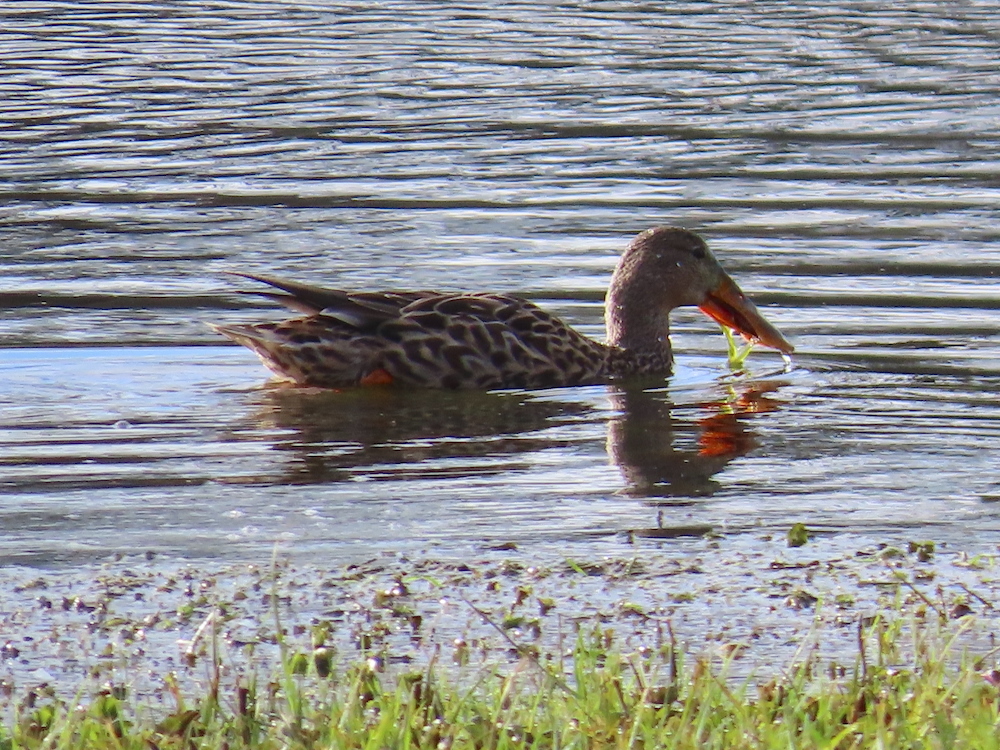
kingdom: Animalia
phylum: Chordata
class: Aves
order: Anseriformes
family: Anatidae
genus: Spatula
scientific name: Spatula clypeata
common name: Northern shoveler
